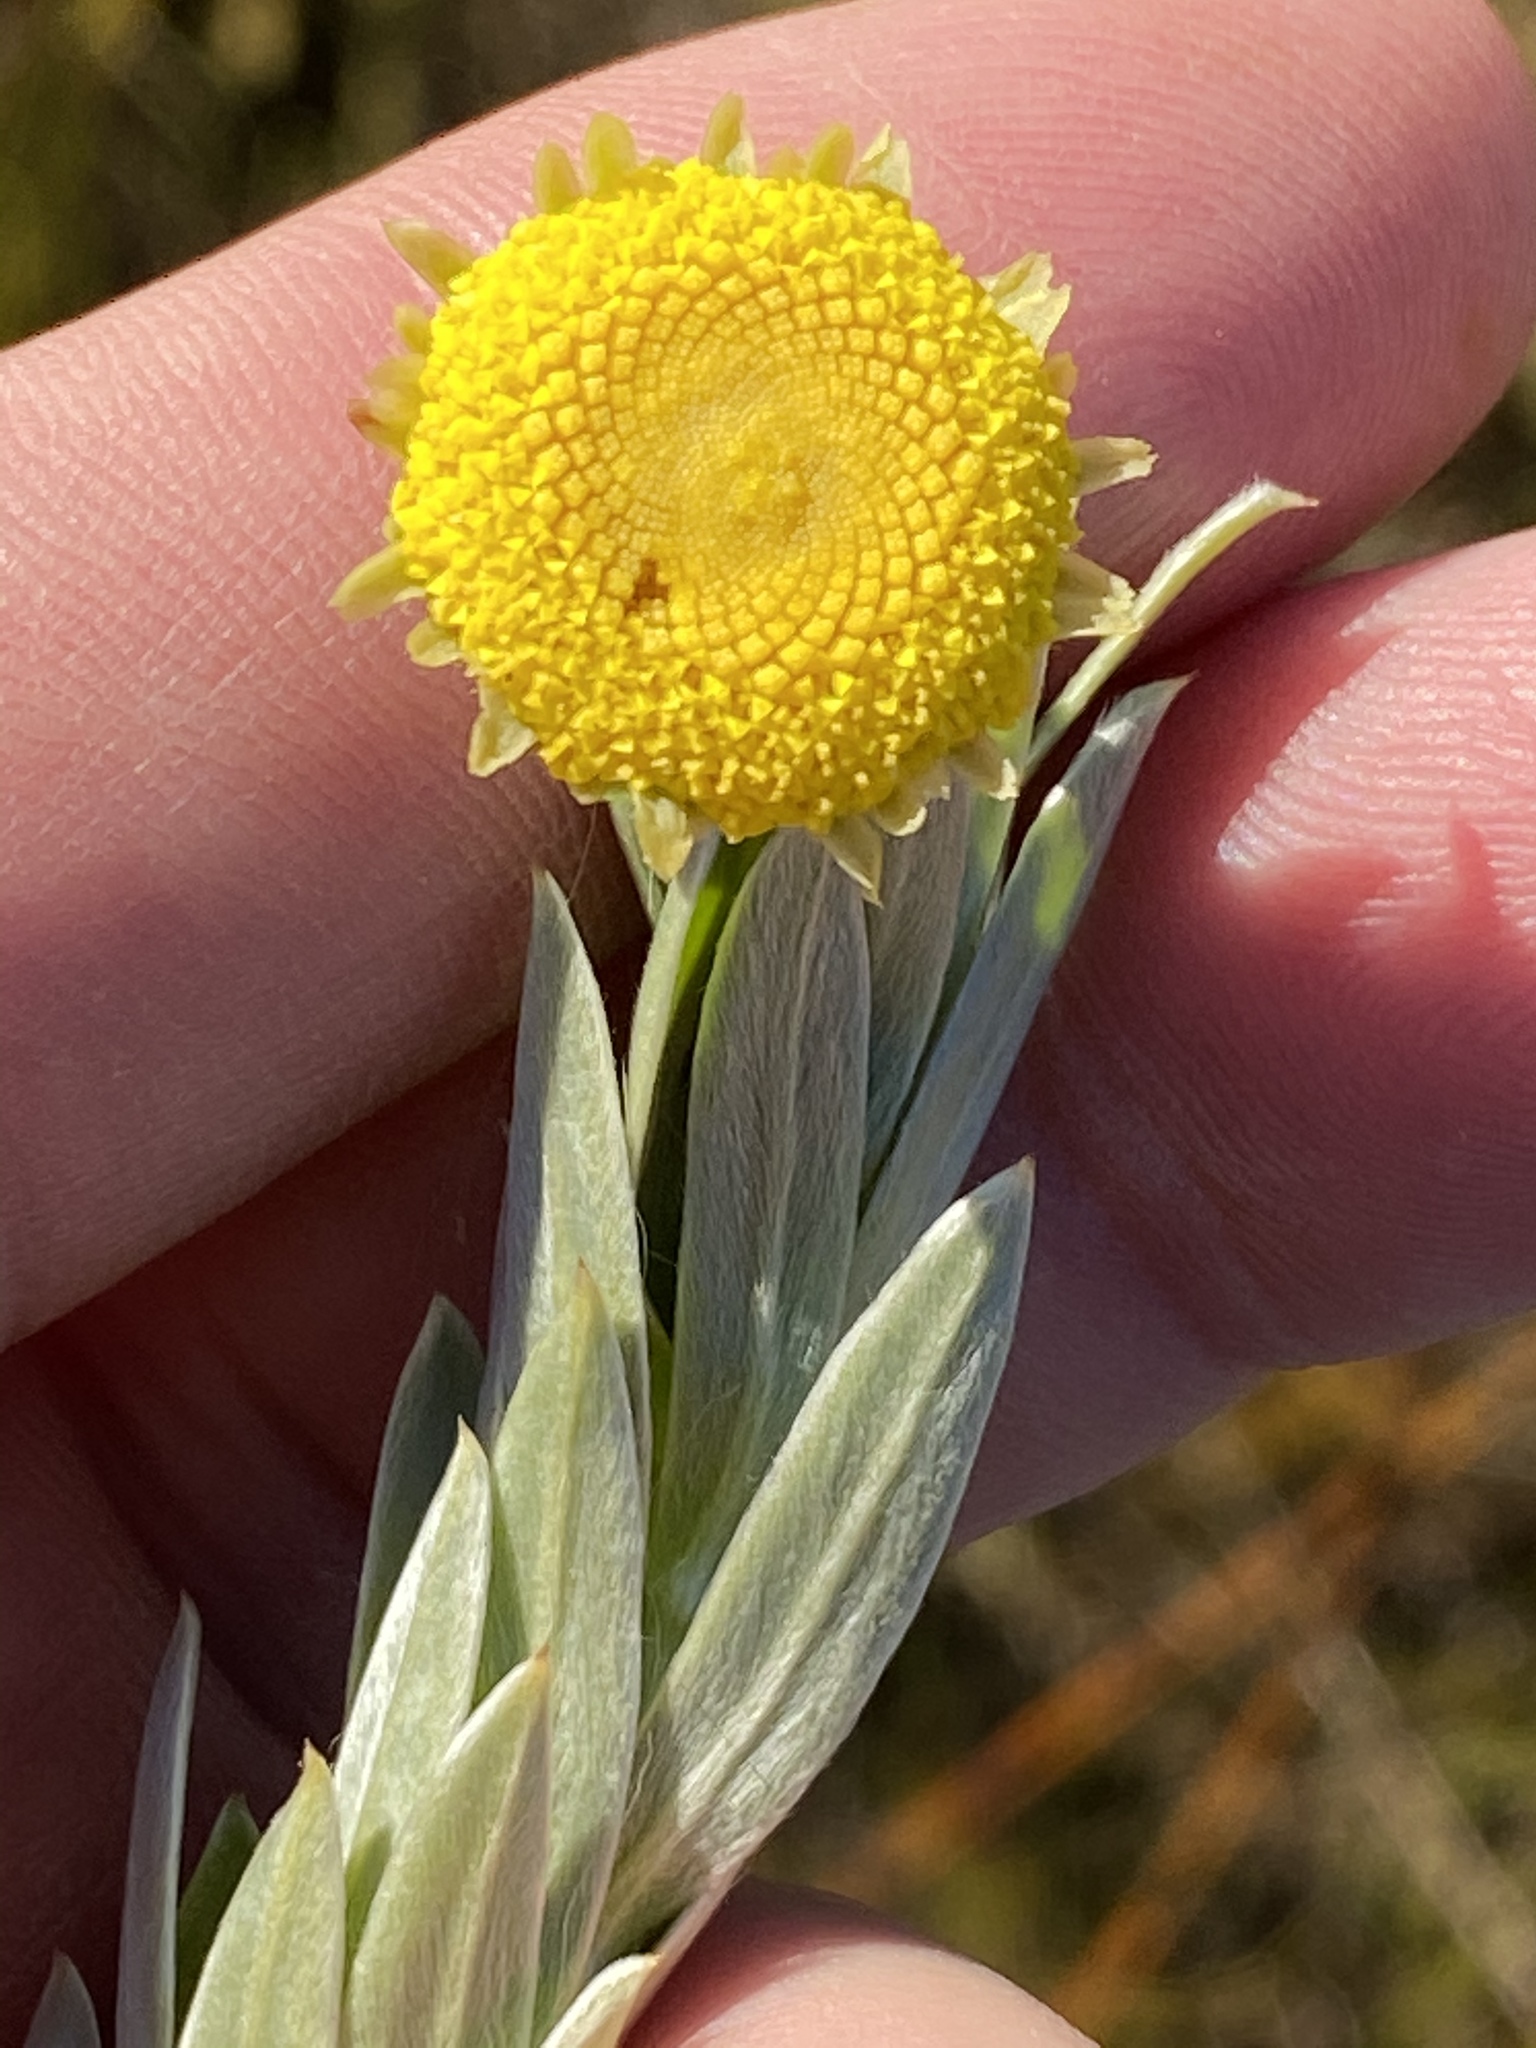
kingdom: Plantae
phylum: Tracheophyta
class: Magnoliopsida
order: Asterales
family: Asteraceae
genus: Schistostephium
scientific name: Schistostephium umbellatum
